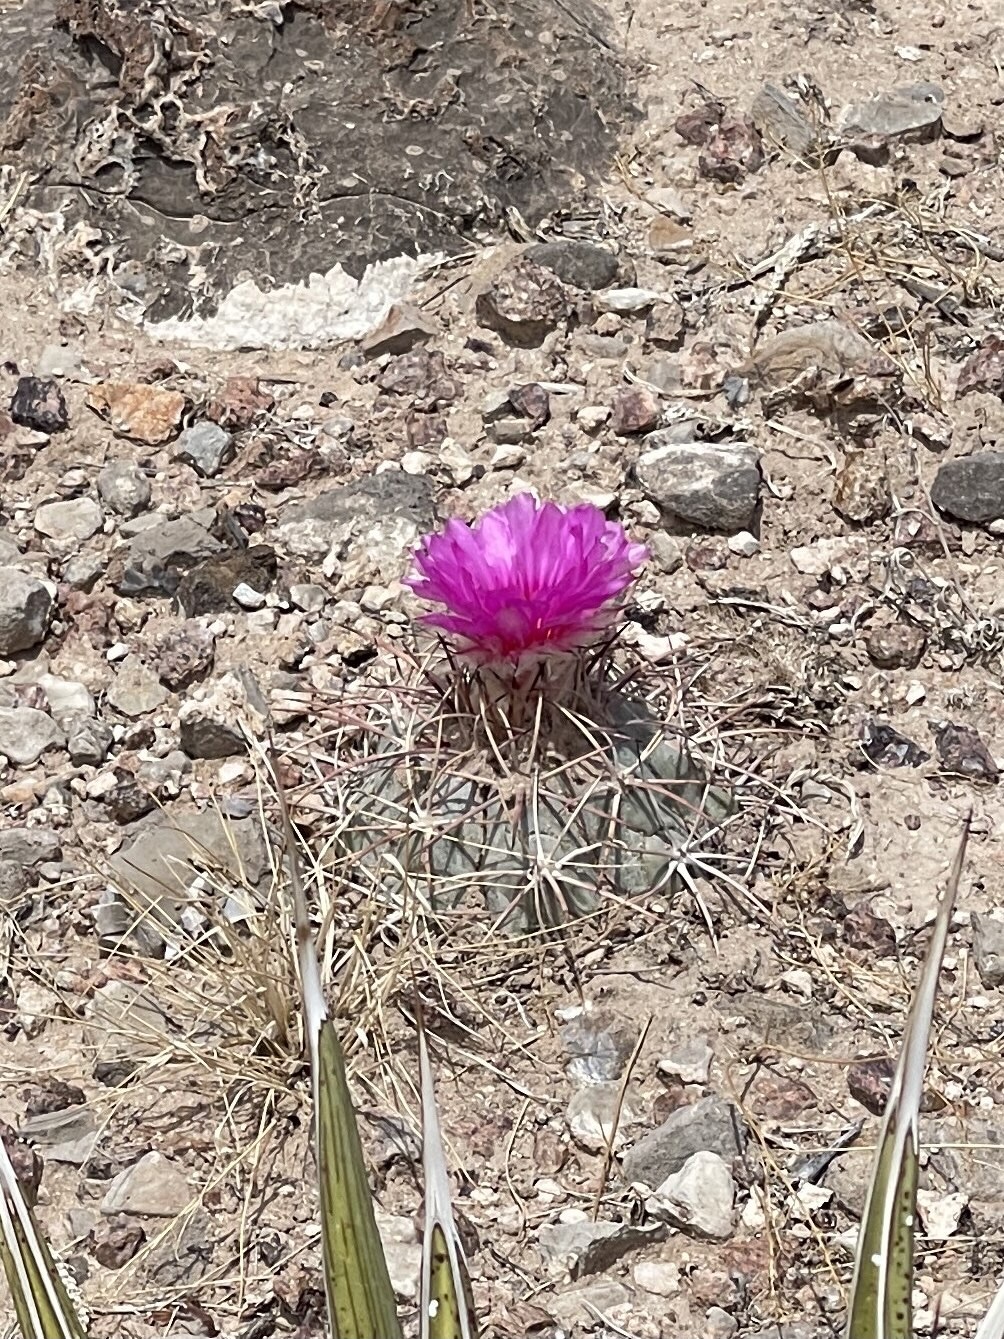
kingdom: Plantae
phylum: Tracheophyta
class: Magnoliopsida
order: Caryophyllales
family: Cactaceae
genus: Echinocactus
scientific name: Echinocactus horizonthalonius
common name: Devilshead
